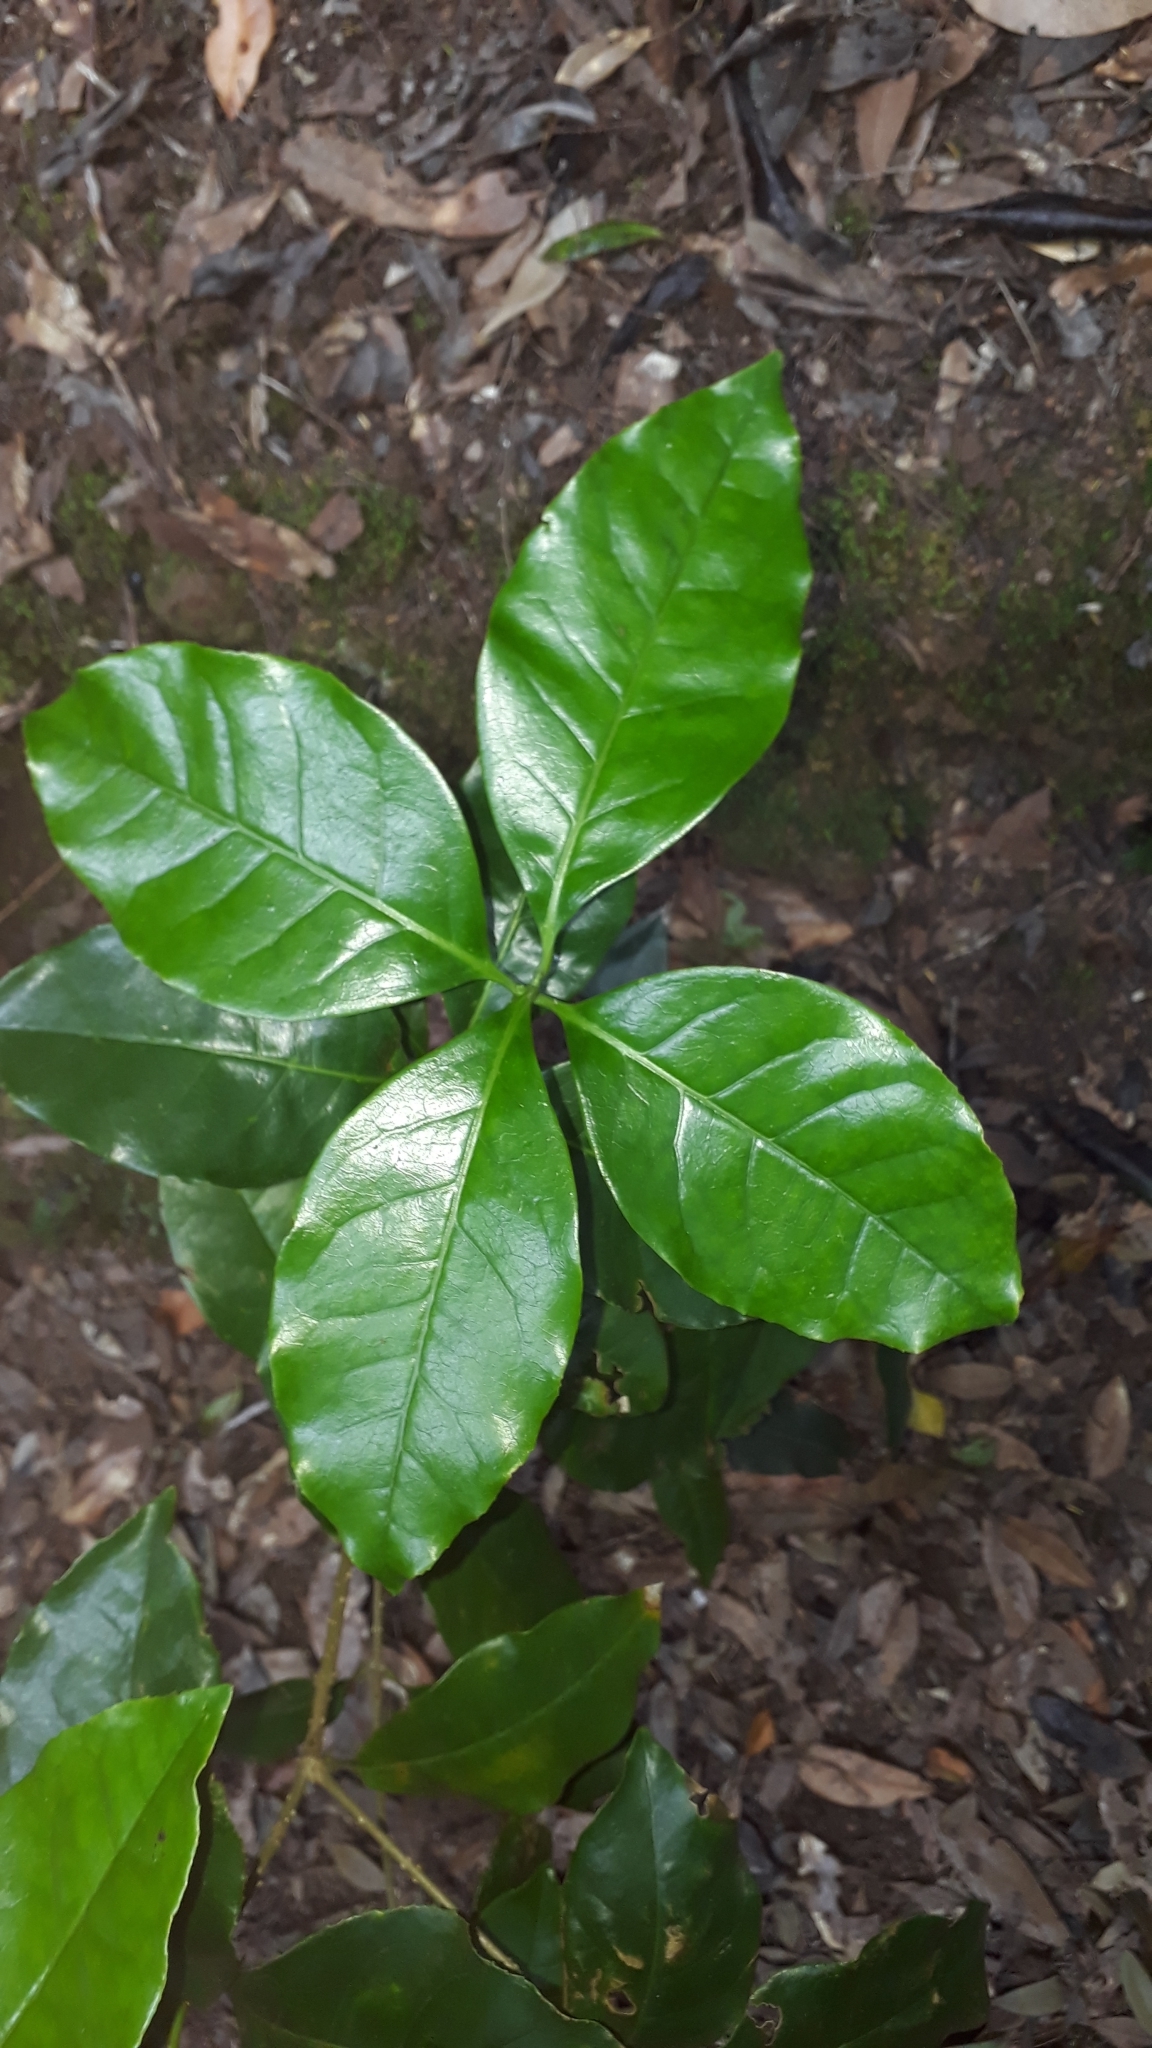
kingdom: Plantae
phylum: Tracheophyta
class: Magnoliopsida
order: Lamiales
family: Oleaceae
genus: Picconia
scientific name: Picconia excelsa
